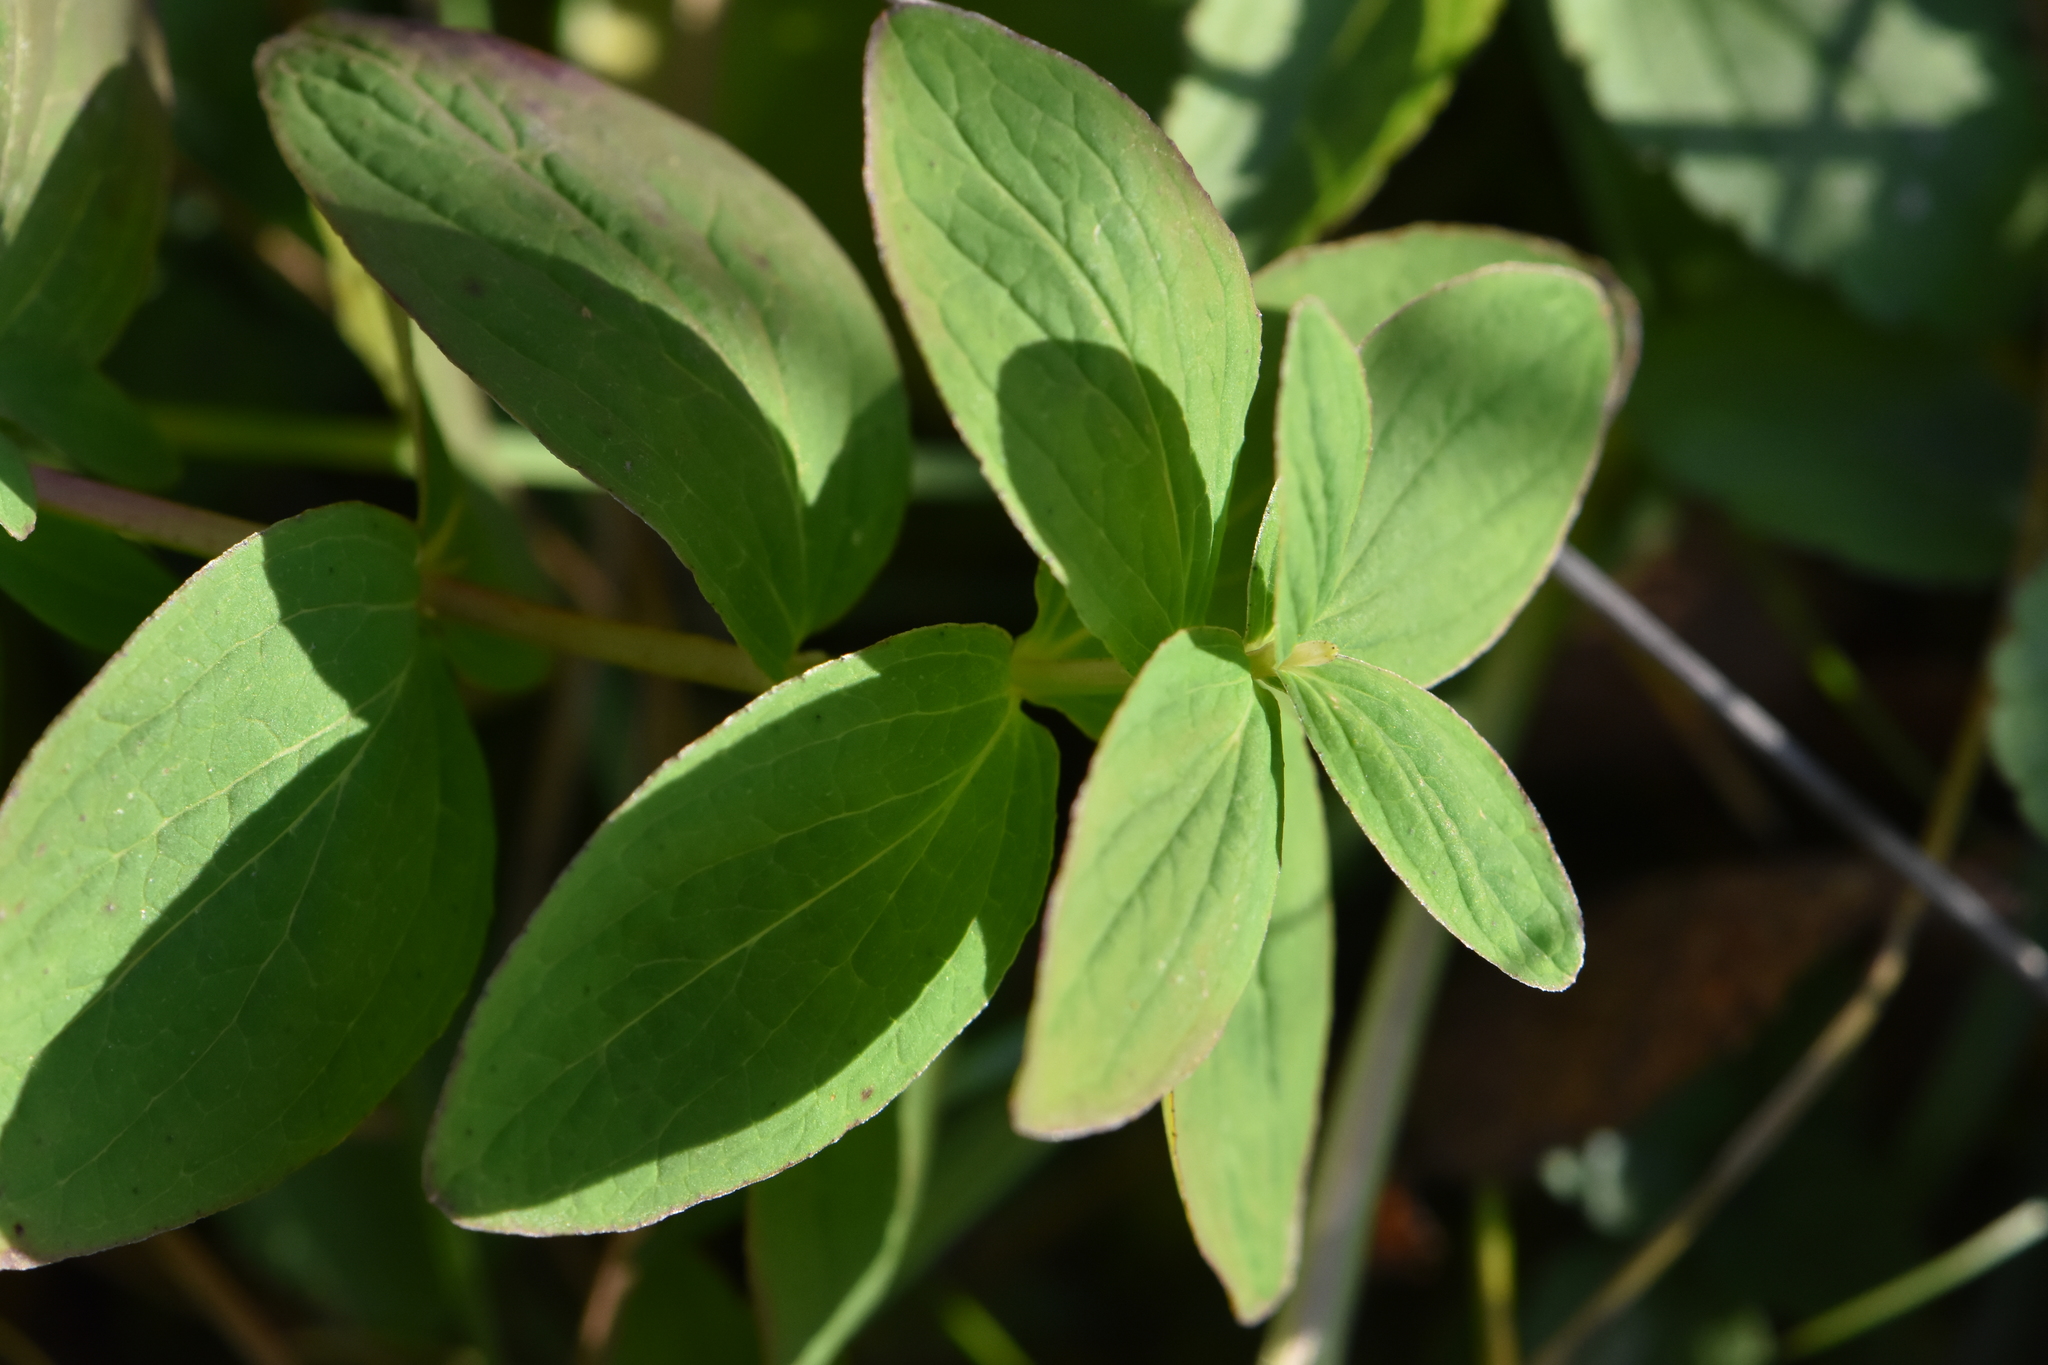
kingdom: Plantae
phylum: Tracheophyta
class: Magnoliopsida
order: Malpighiales
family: Hypericaceae
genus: Hypericum
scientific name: Hypericum maculatum
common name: Imperforate st. john's-wort
